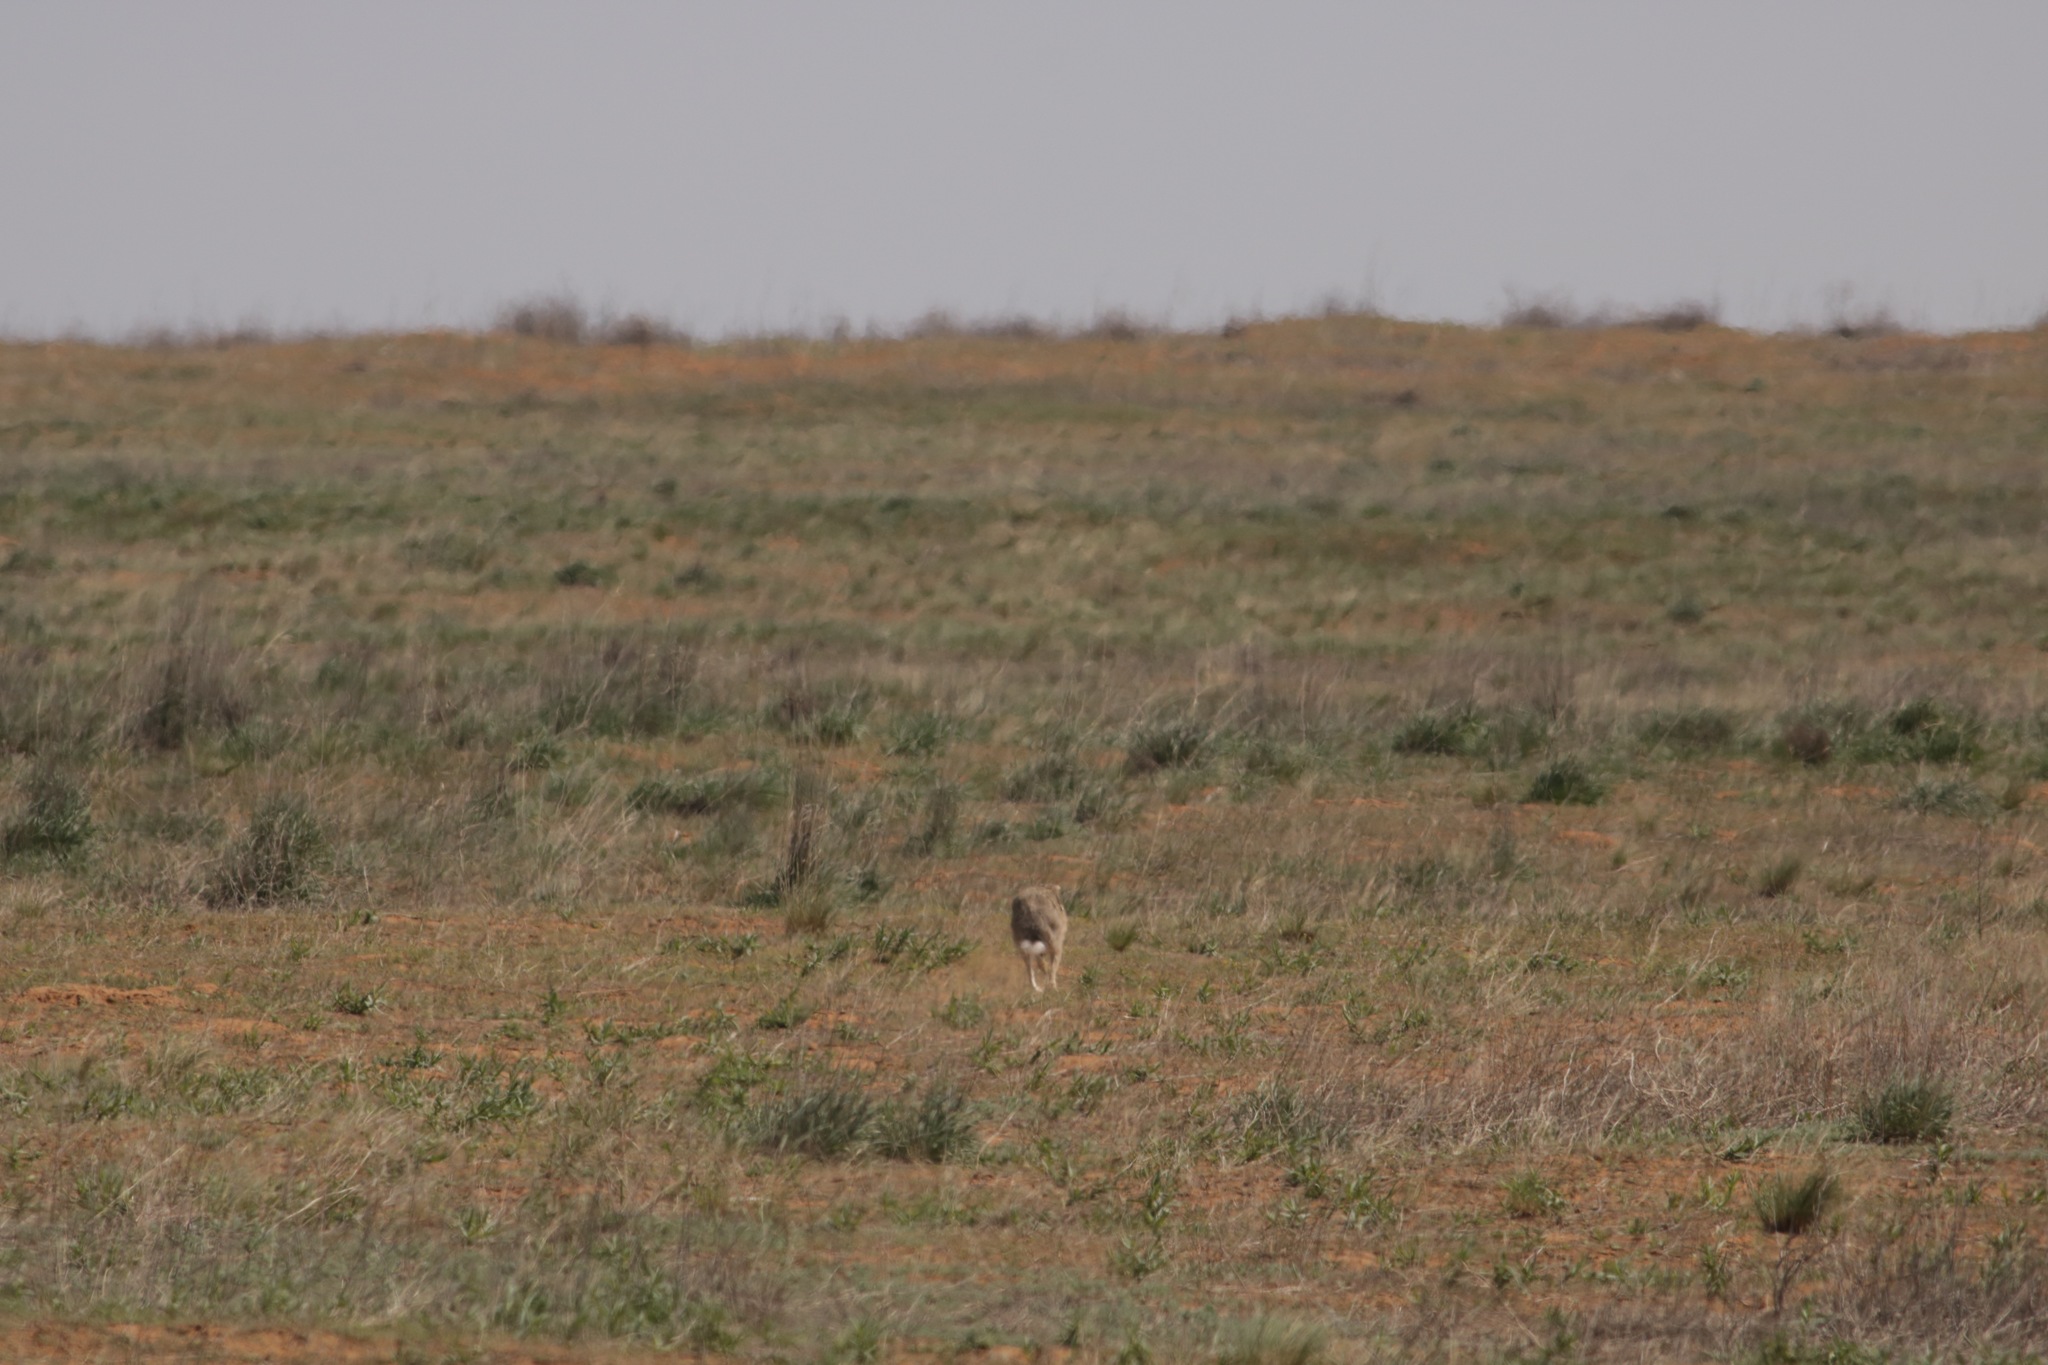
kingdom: Animalia
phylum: Chordata
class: Mammalia
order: Lagomorpha
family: Leporidae
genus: Lepus
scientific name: Lepus europaeus
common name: European hare
